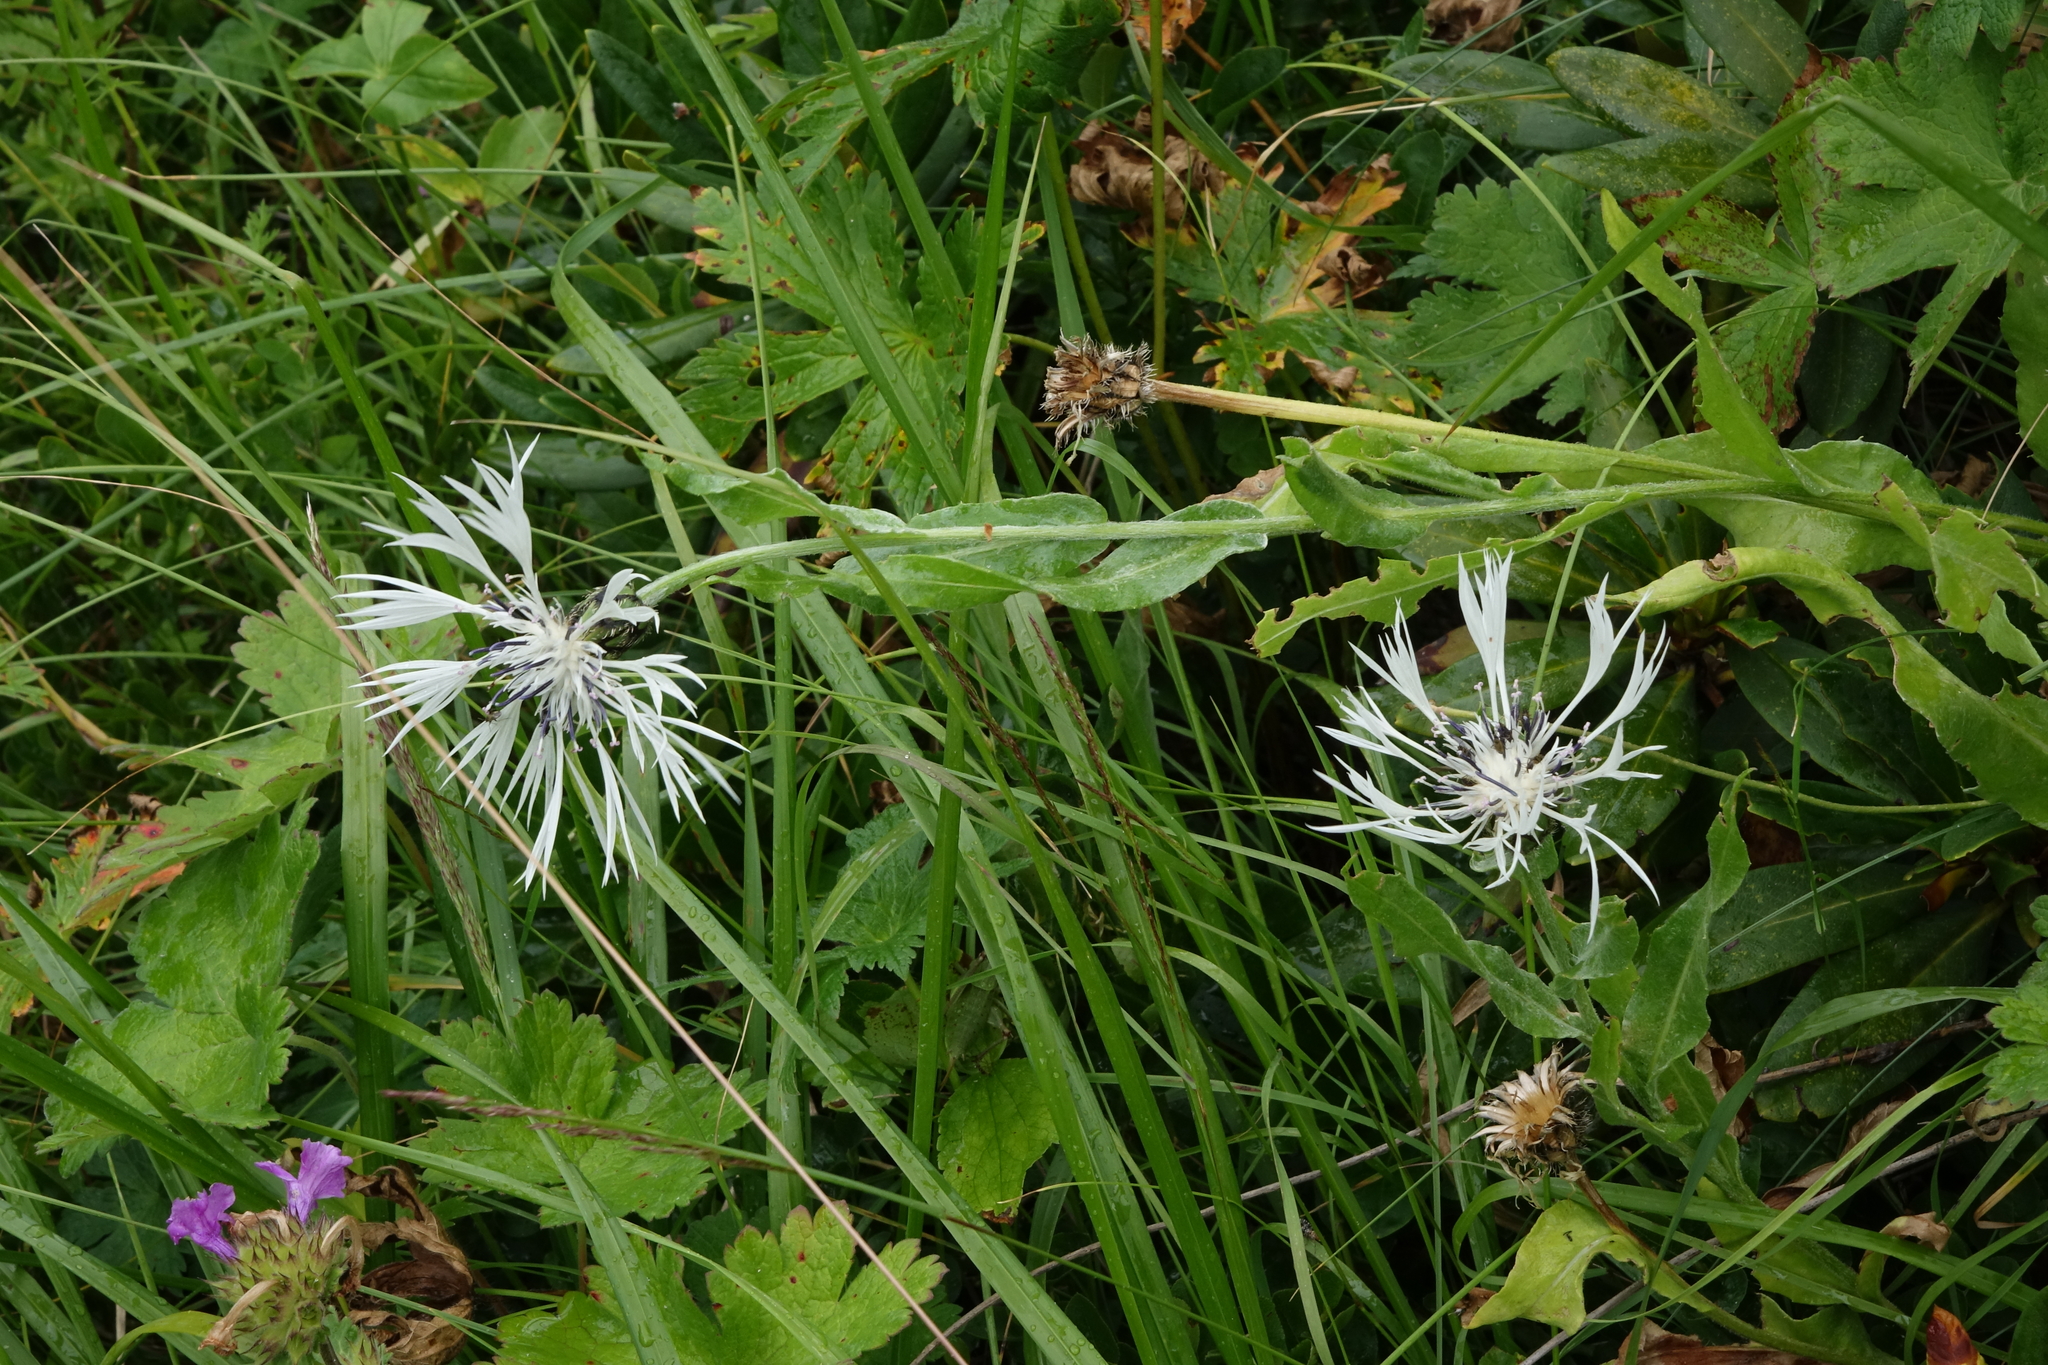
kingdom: Plantae
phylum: Tracheophyta
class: Magnoliopsida
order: Asterales
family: Asteraceae
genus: Centaurea
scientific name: Centaurea cheiranthifolia
